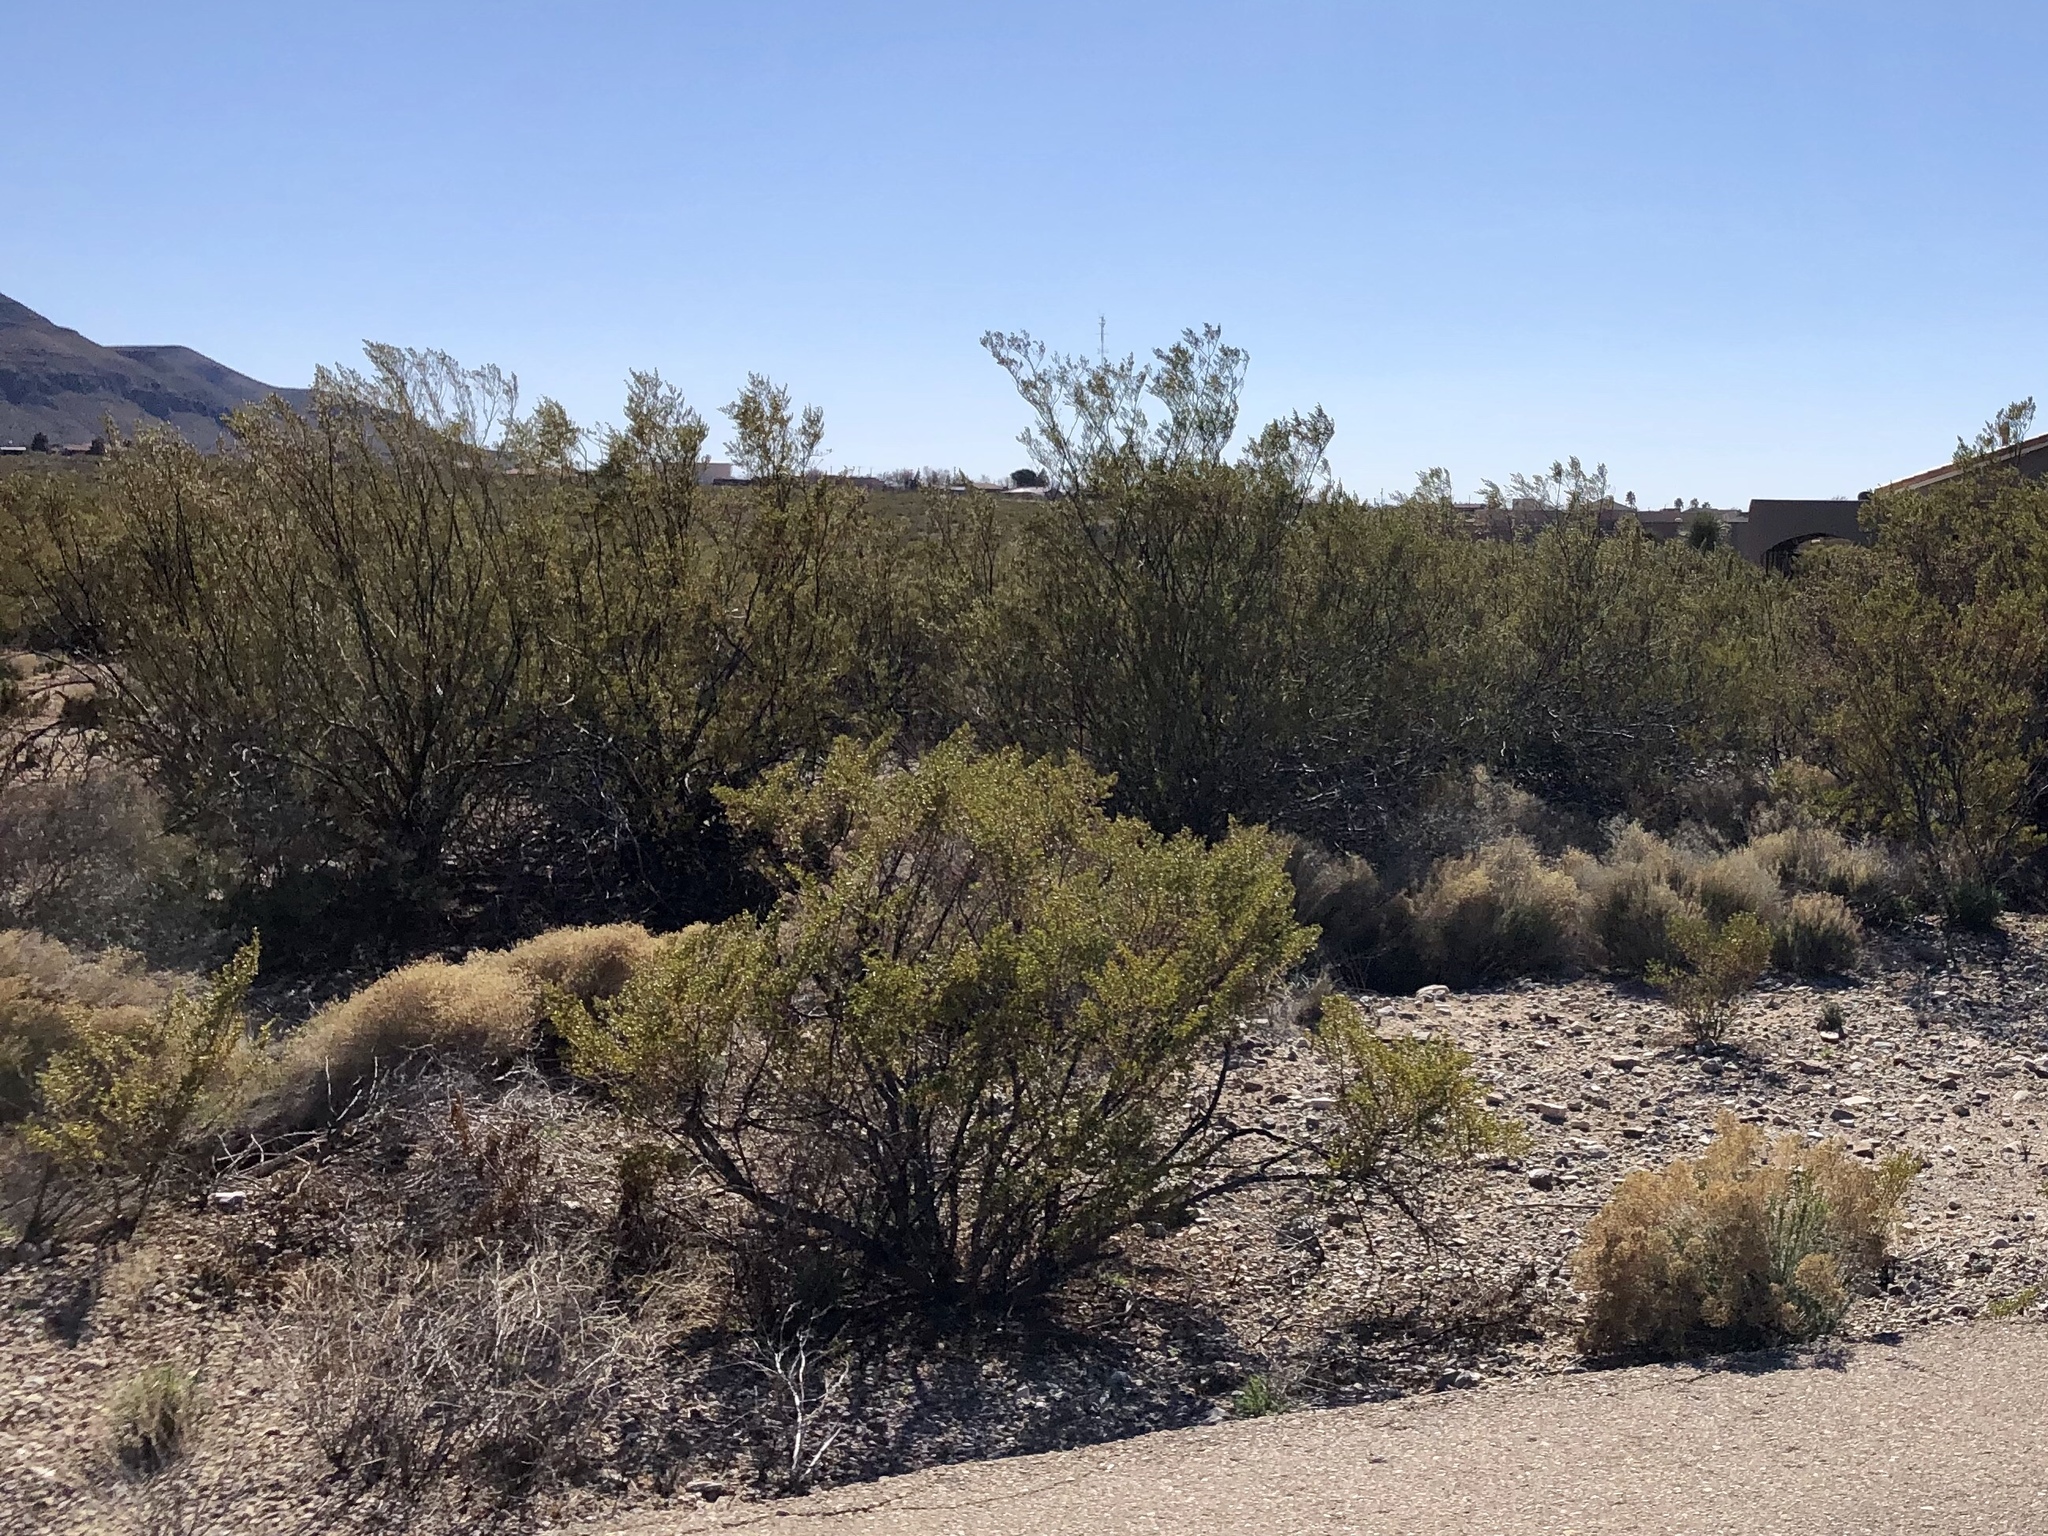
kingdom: Plantae
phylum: Tracheophyta
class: Magnoliopsida
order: Zygophyllales
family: Zygophyllaceae
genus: Larrea
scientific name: Larrea tridentata
